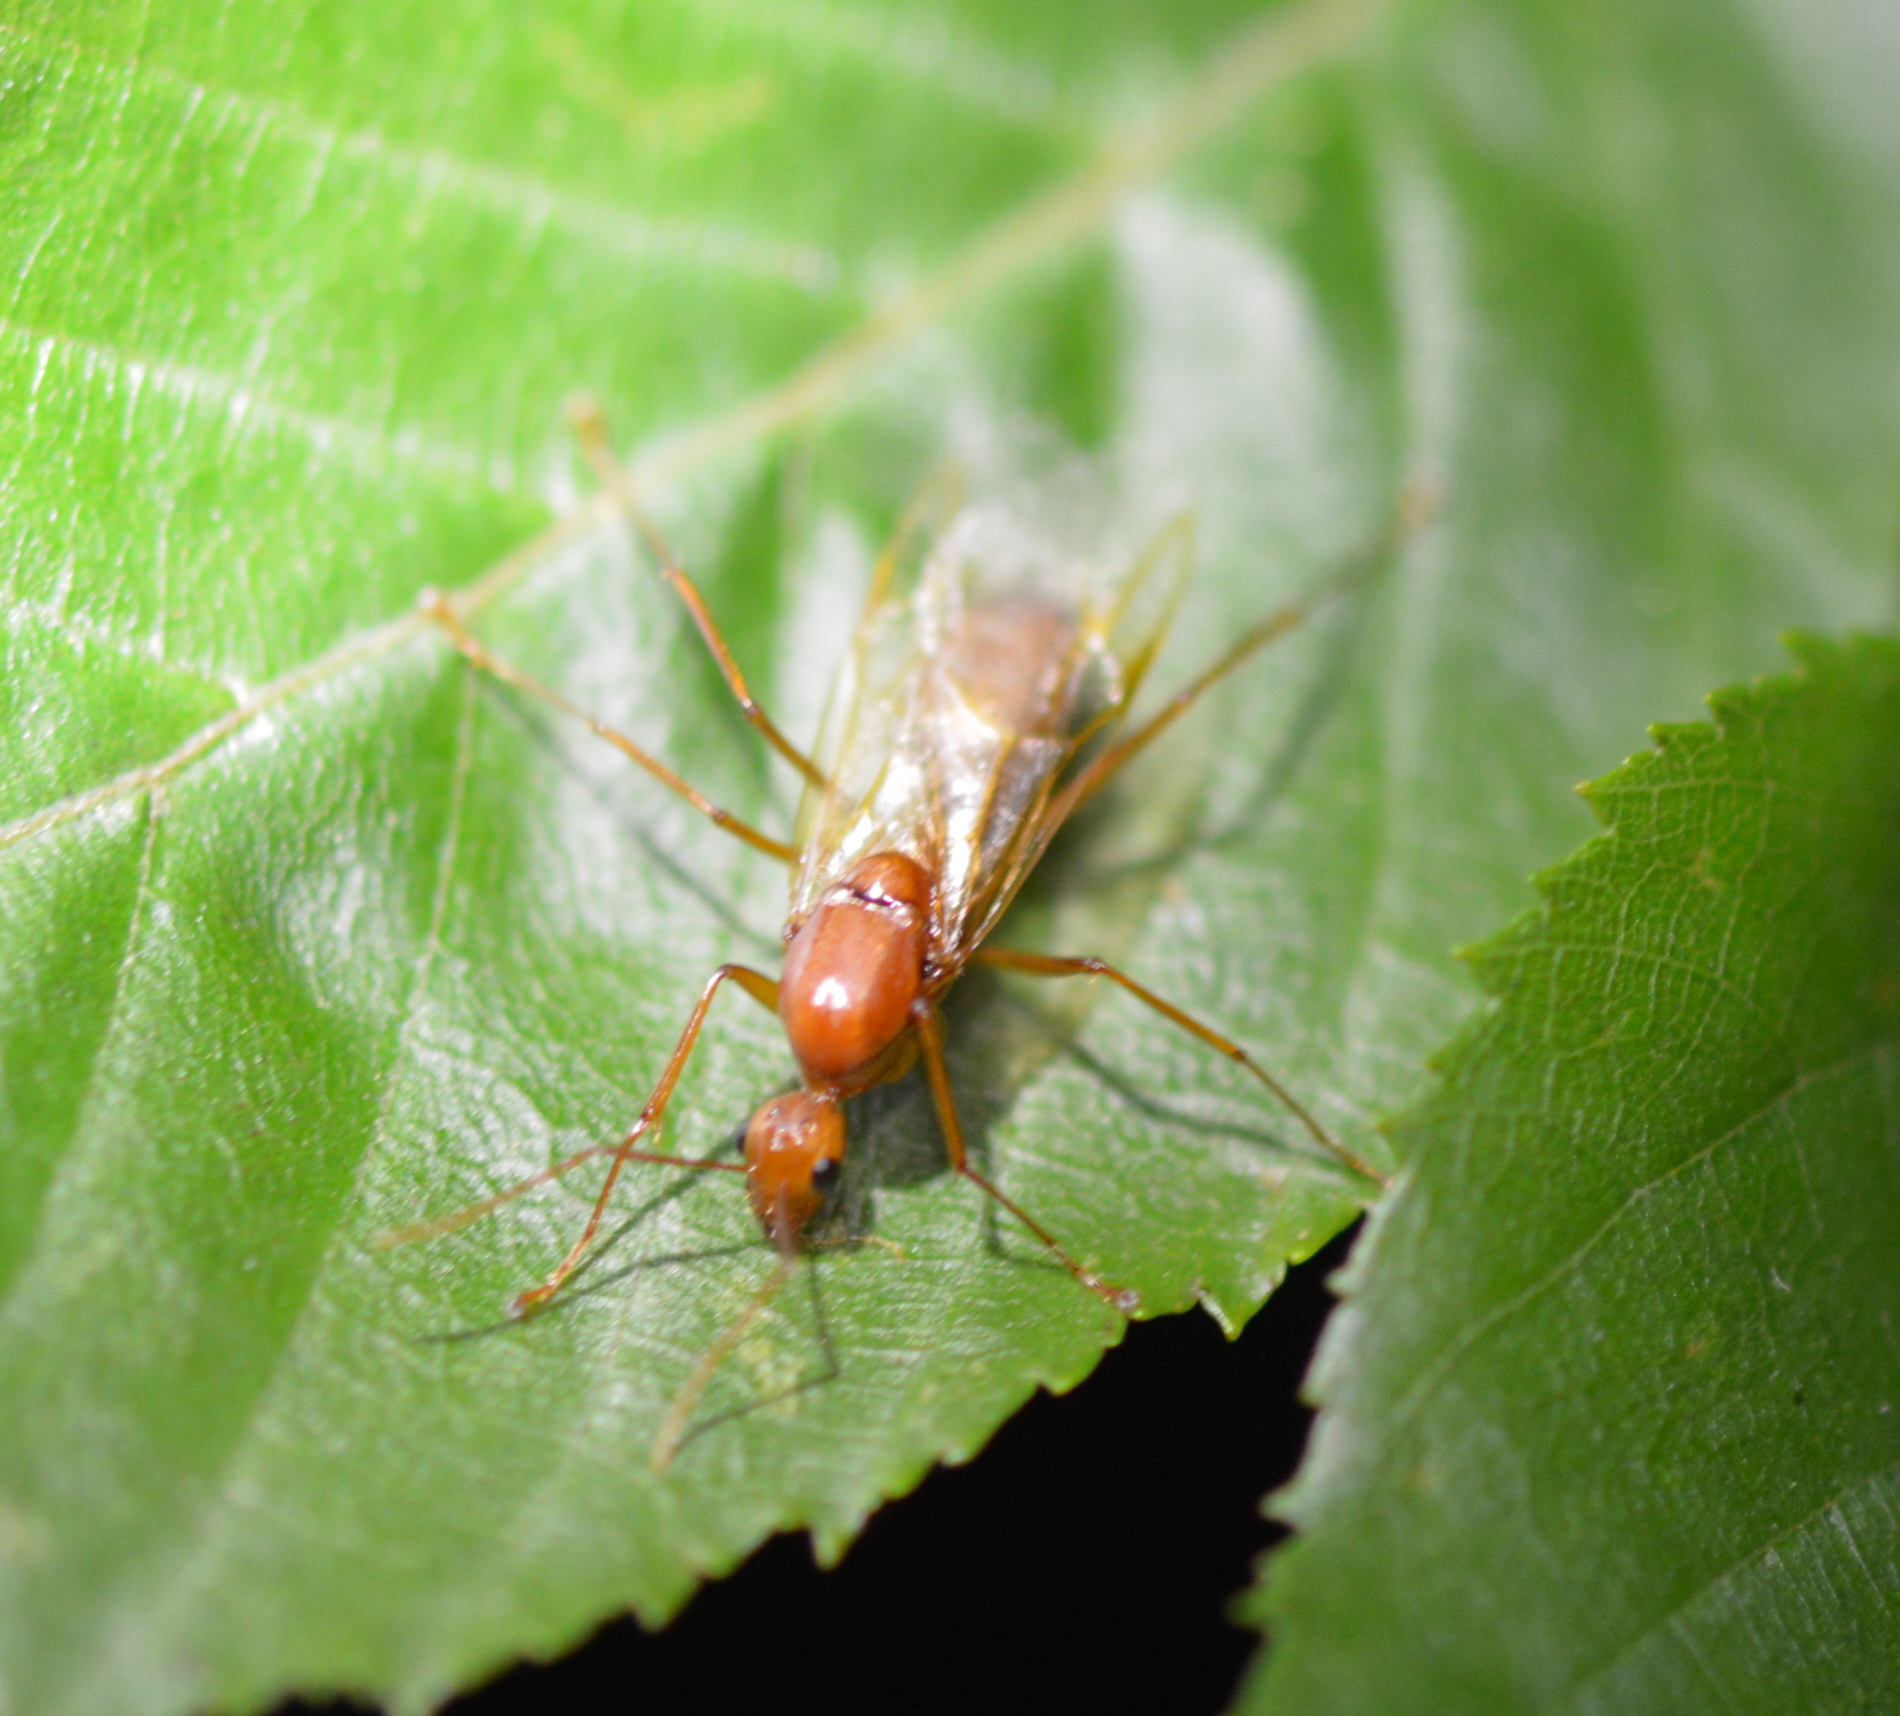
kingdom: Animalia
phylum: Arthropoda
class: Insecta
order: Hymenoptera
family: Formicidae
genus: Camponotus
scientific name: Camponotus castaneus
